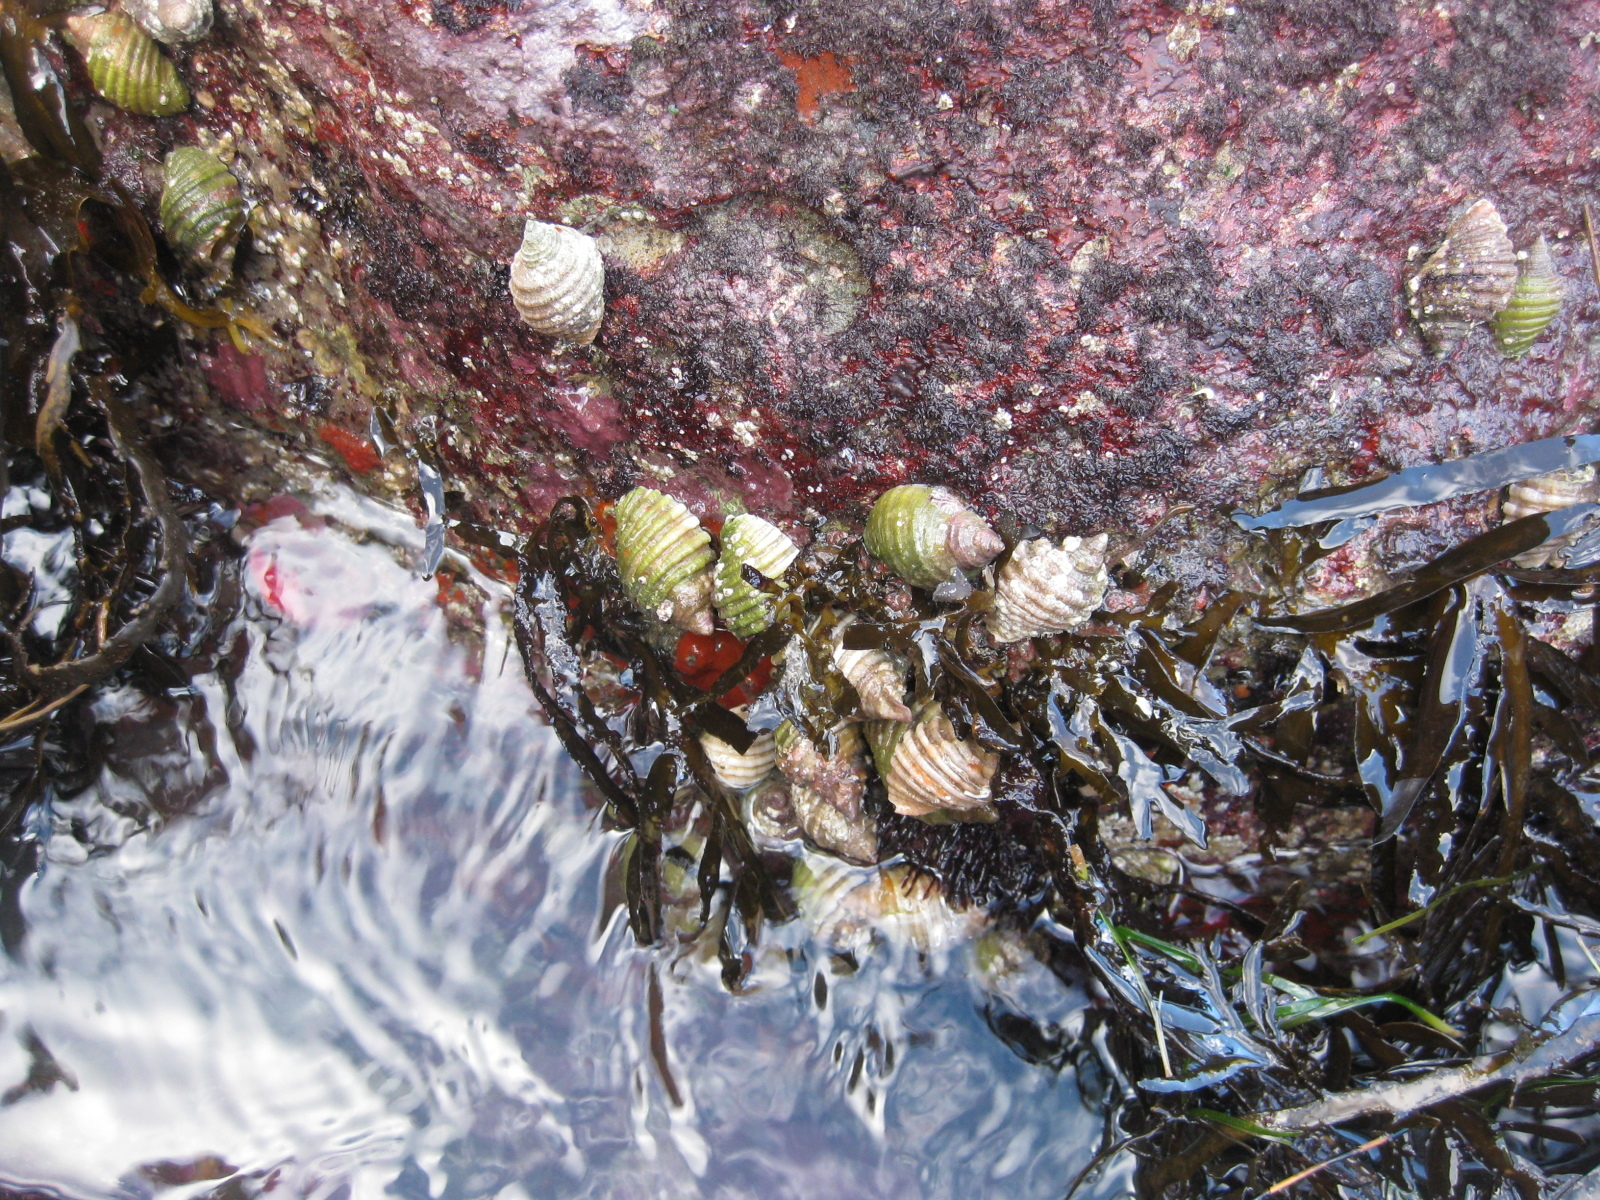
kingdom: Animalia
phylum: Mollusca
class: Gastropoda
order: Neogastropoda
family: Muricidae
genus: Dicathais
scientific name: Dicathais orbita
